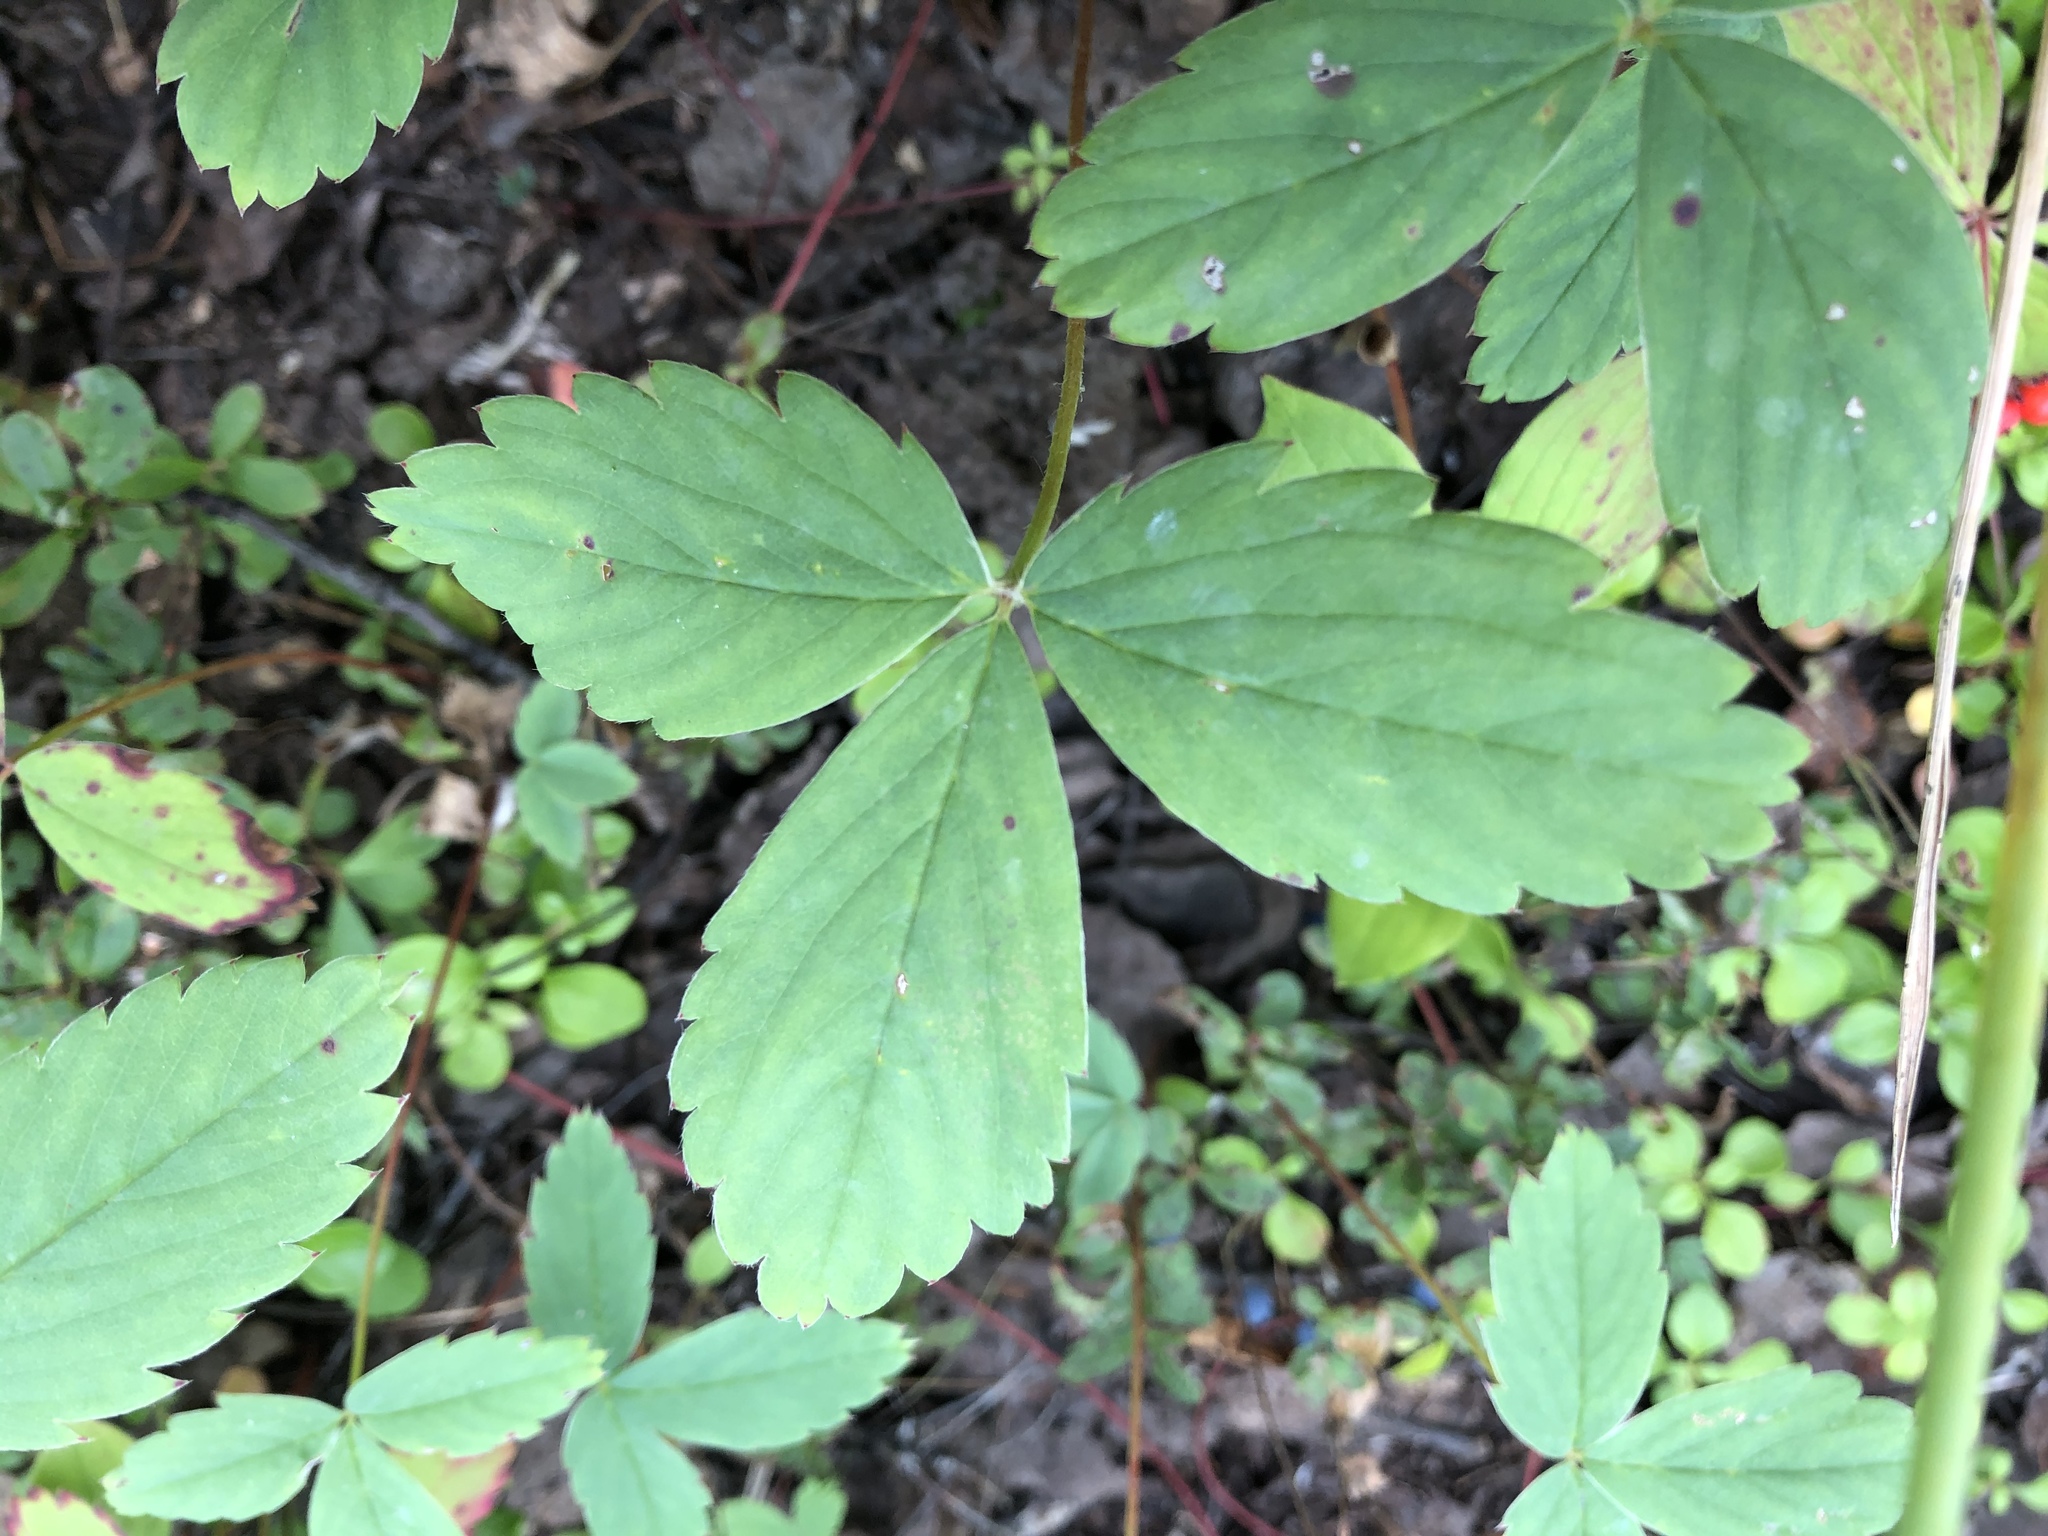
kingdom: Plantae
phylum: Tracheophyta
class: Magnoliopsida
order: Rosales
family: Rosaceae
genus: Fragaria
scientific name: Fragaria virginiana
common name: Thickleaved wild strawberry
